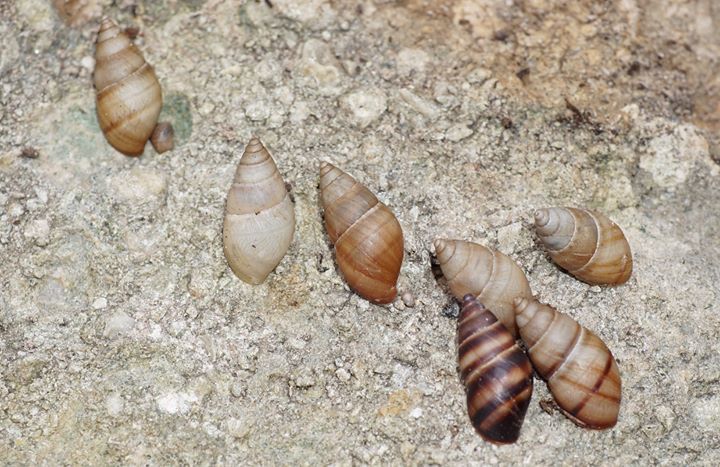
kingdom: Animalia
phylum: Mollusca
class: Gastropoda
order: Stylommatophora
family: Bulimulidae
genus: Bulimulus
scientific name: Bulimulus guadalupensis
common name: West indian bulimulus
